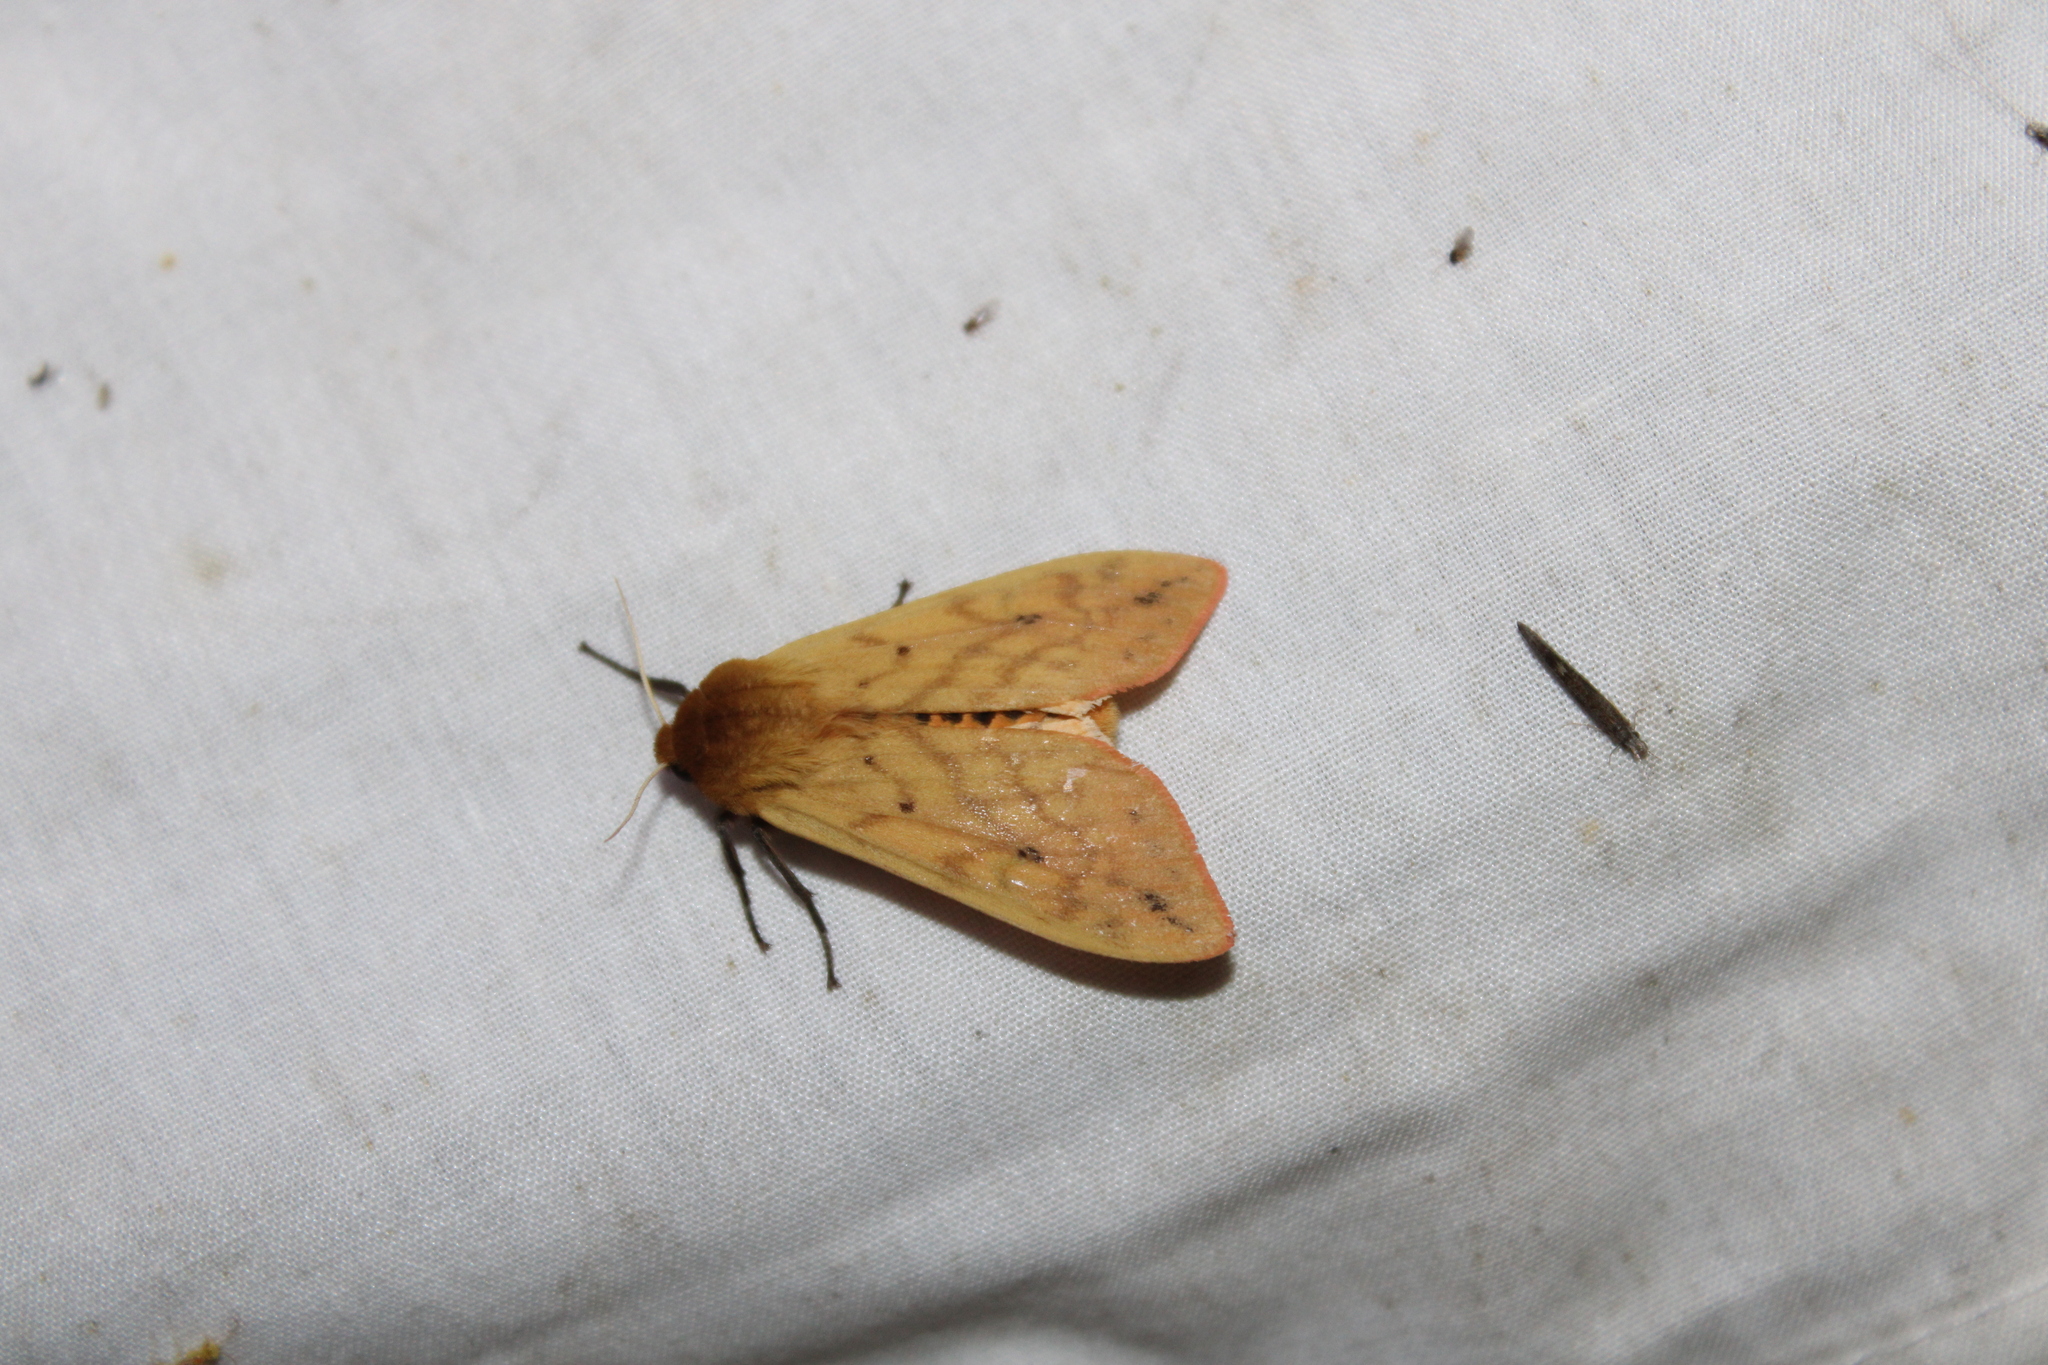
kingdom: Animalia
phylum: Arthropoda
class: Insecta
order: Lepidoptera
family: Erebidae
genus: Pyrrharctia
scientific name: Pyrrharctia isabella
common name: Isabella tiger moth
